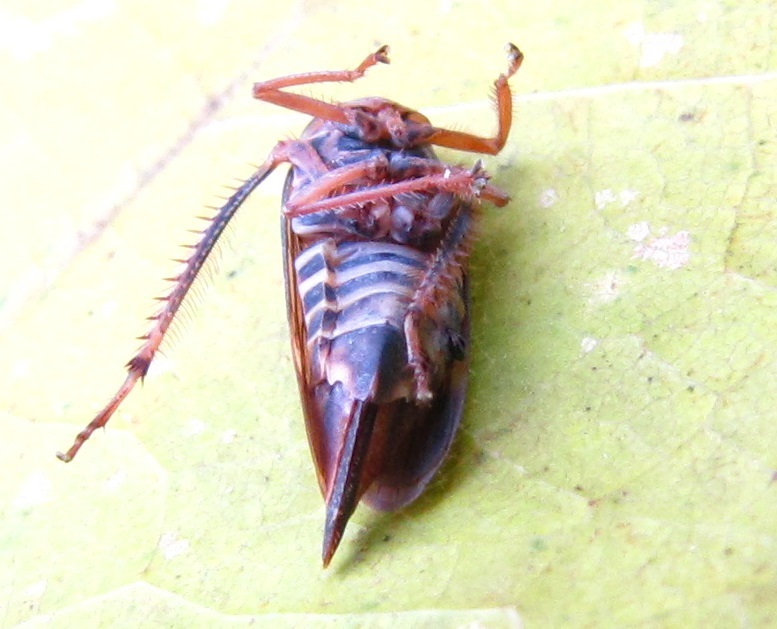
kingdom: Animalia
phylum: Arthropoda
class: Insecta
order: Hemiptera
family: Cicadellidae
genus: Jikradia
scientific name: Jikradia olitoria
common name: Coppery leafhopper
